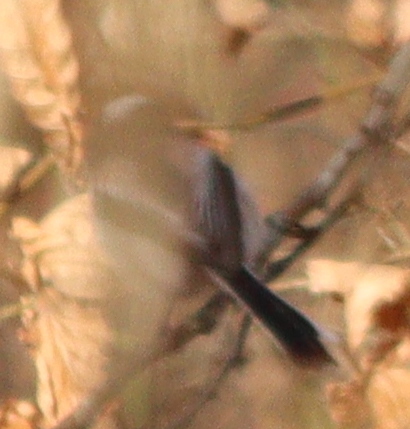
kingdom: Animalia
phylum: Chordata
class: Aves
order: Passeriformes
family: Aegithalidae
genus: Aegithalos
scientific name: Aegithalos caudatus
